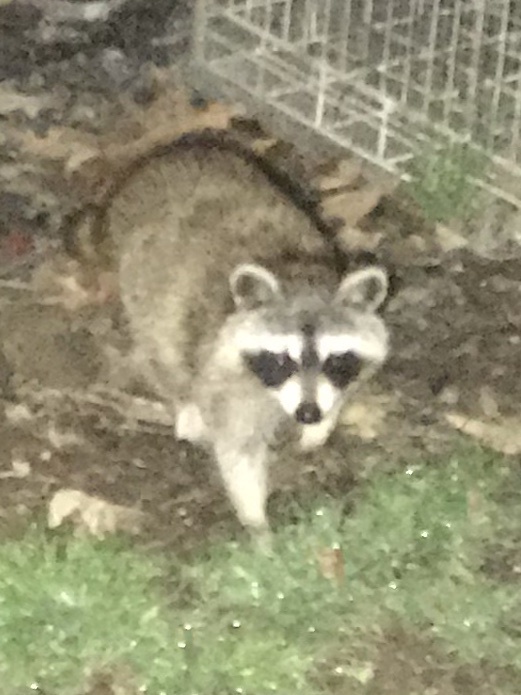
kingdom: Animalia
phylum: Chordata
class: Mammalia
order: Carnivora
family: Procyonidae
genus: Procyon
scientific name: Procyon lotor
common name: Raccoon
